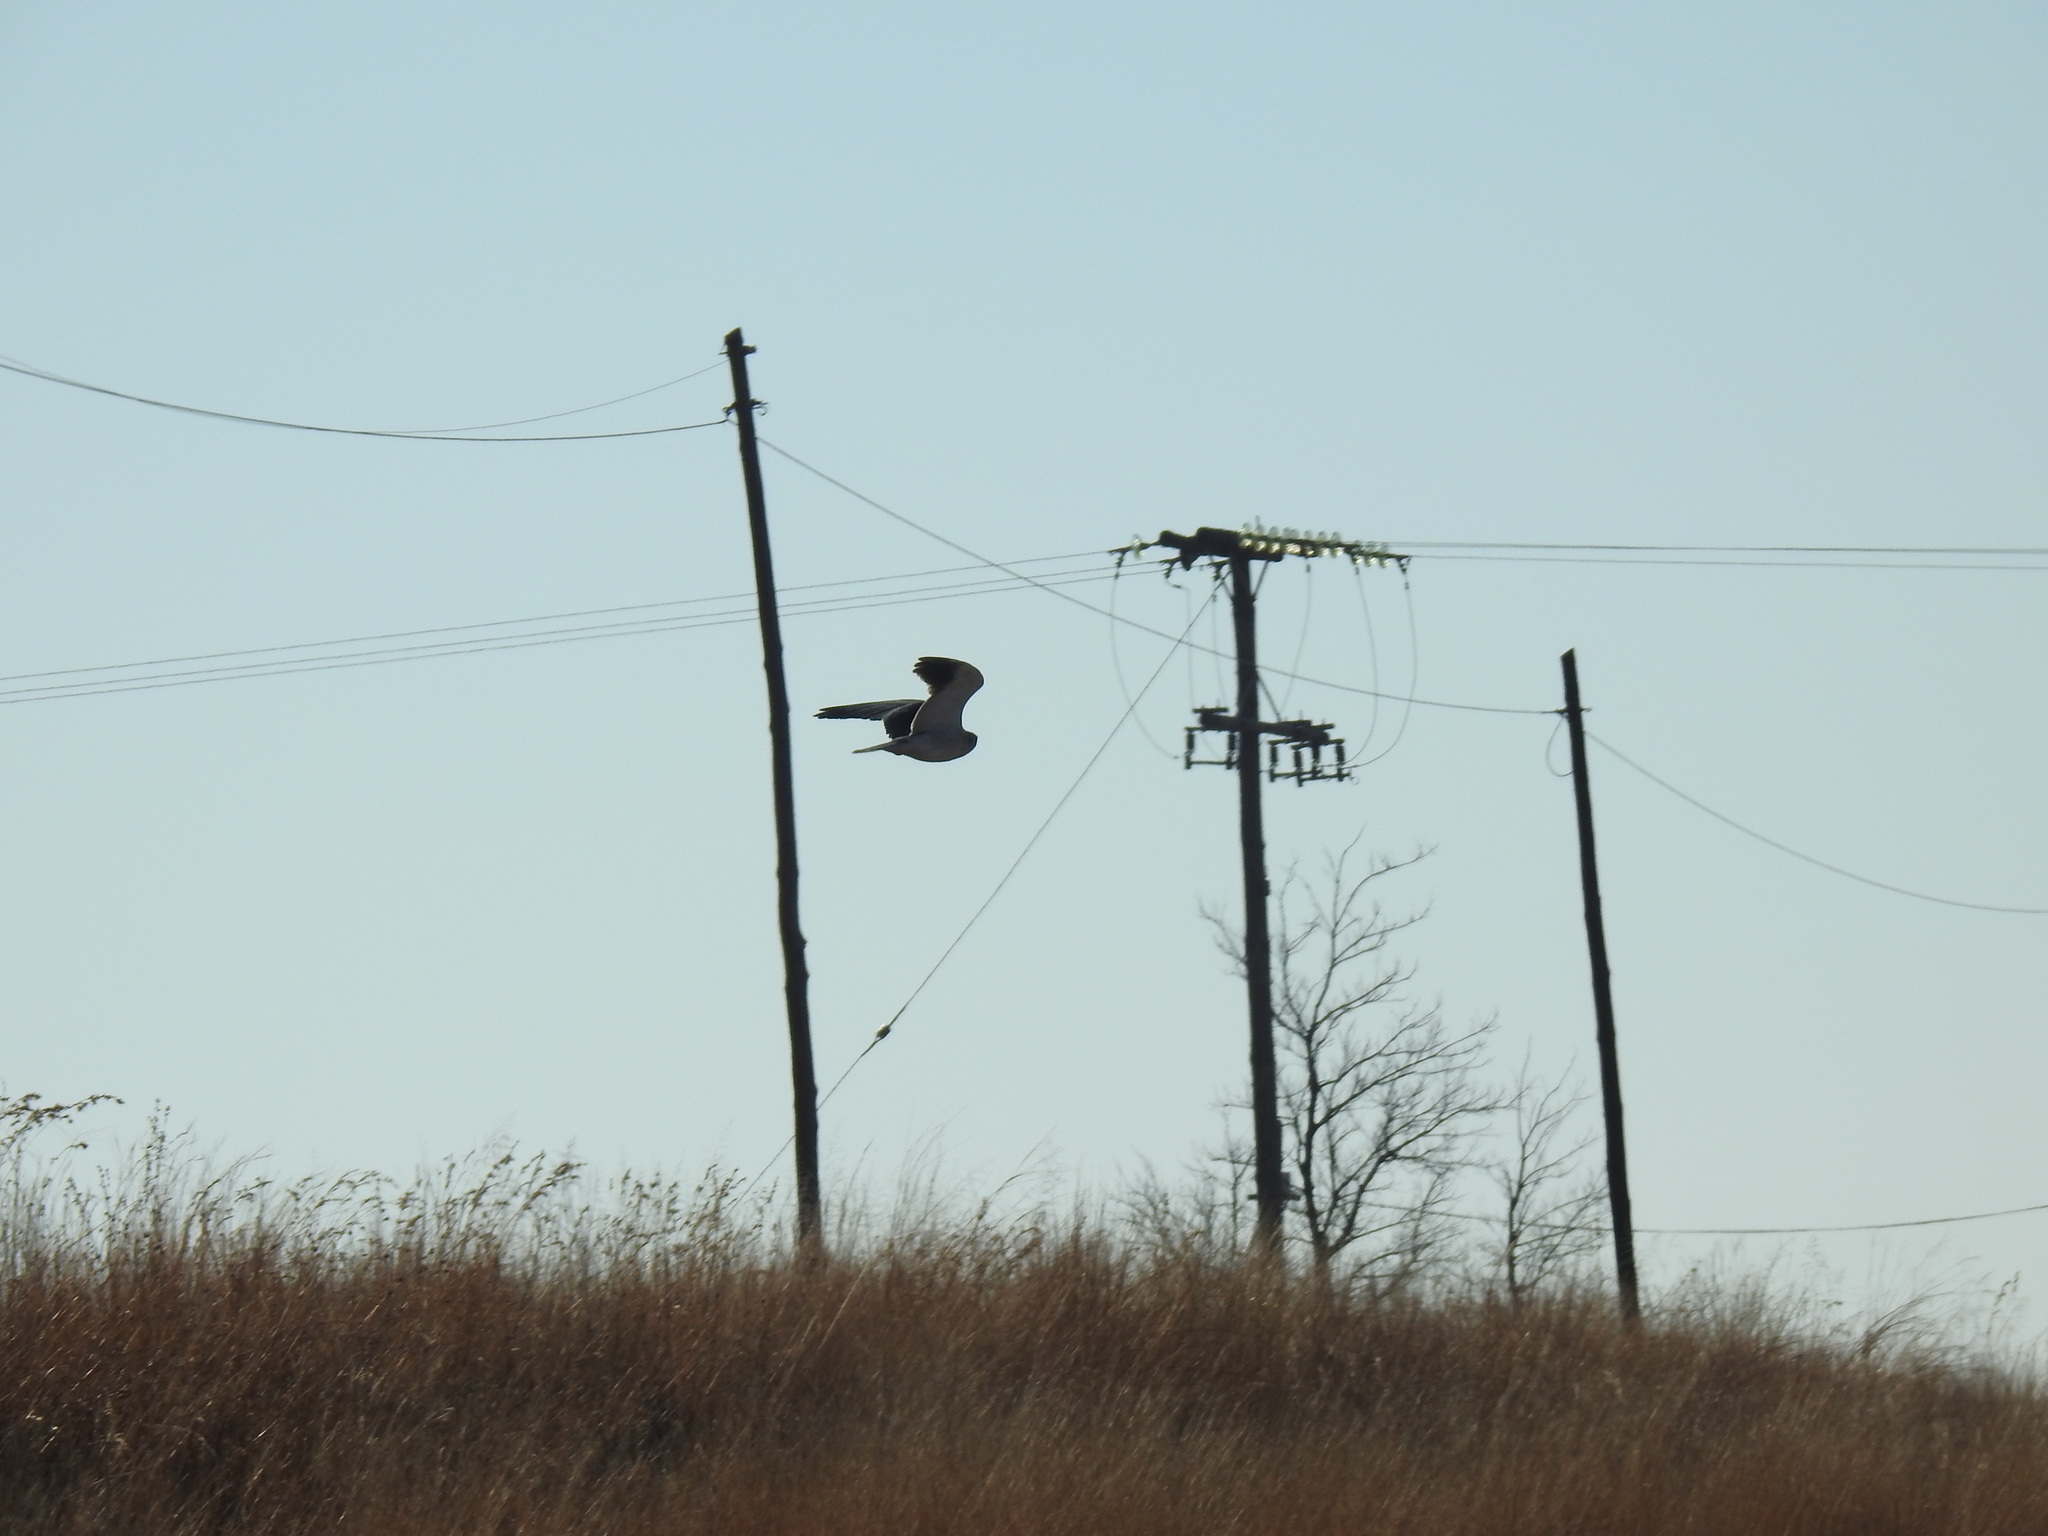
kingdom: Animalia
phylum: Chordata
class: Aves
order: Accipitriformes
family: Accipitridae
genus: Elanus
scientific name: Elanus caeruleus
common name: Black-winged kite
